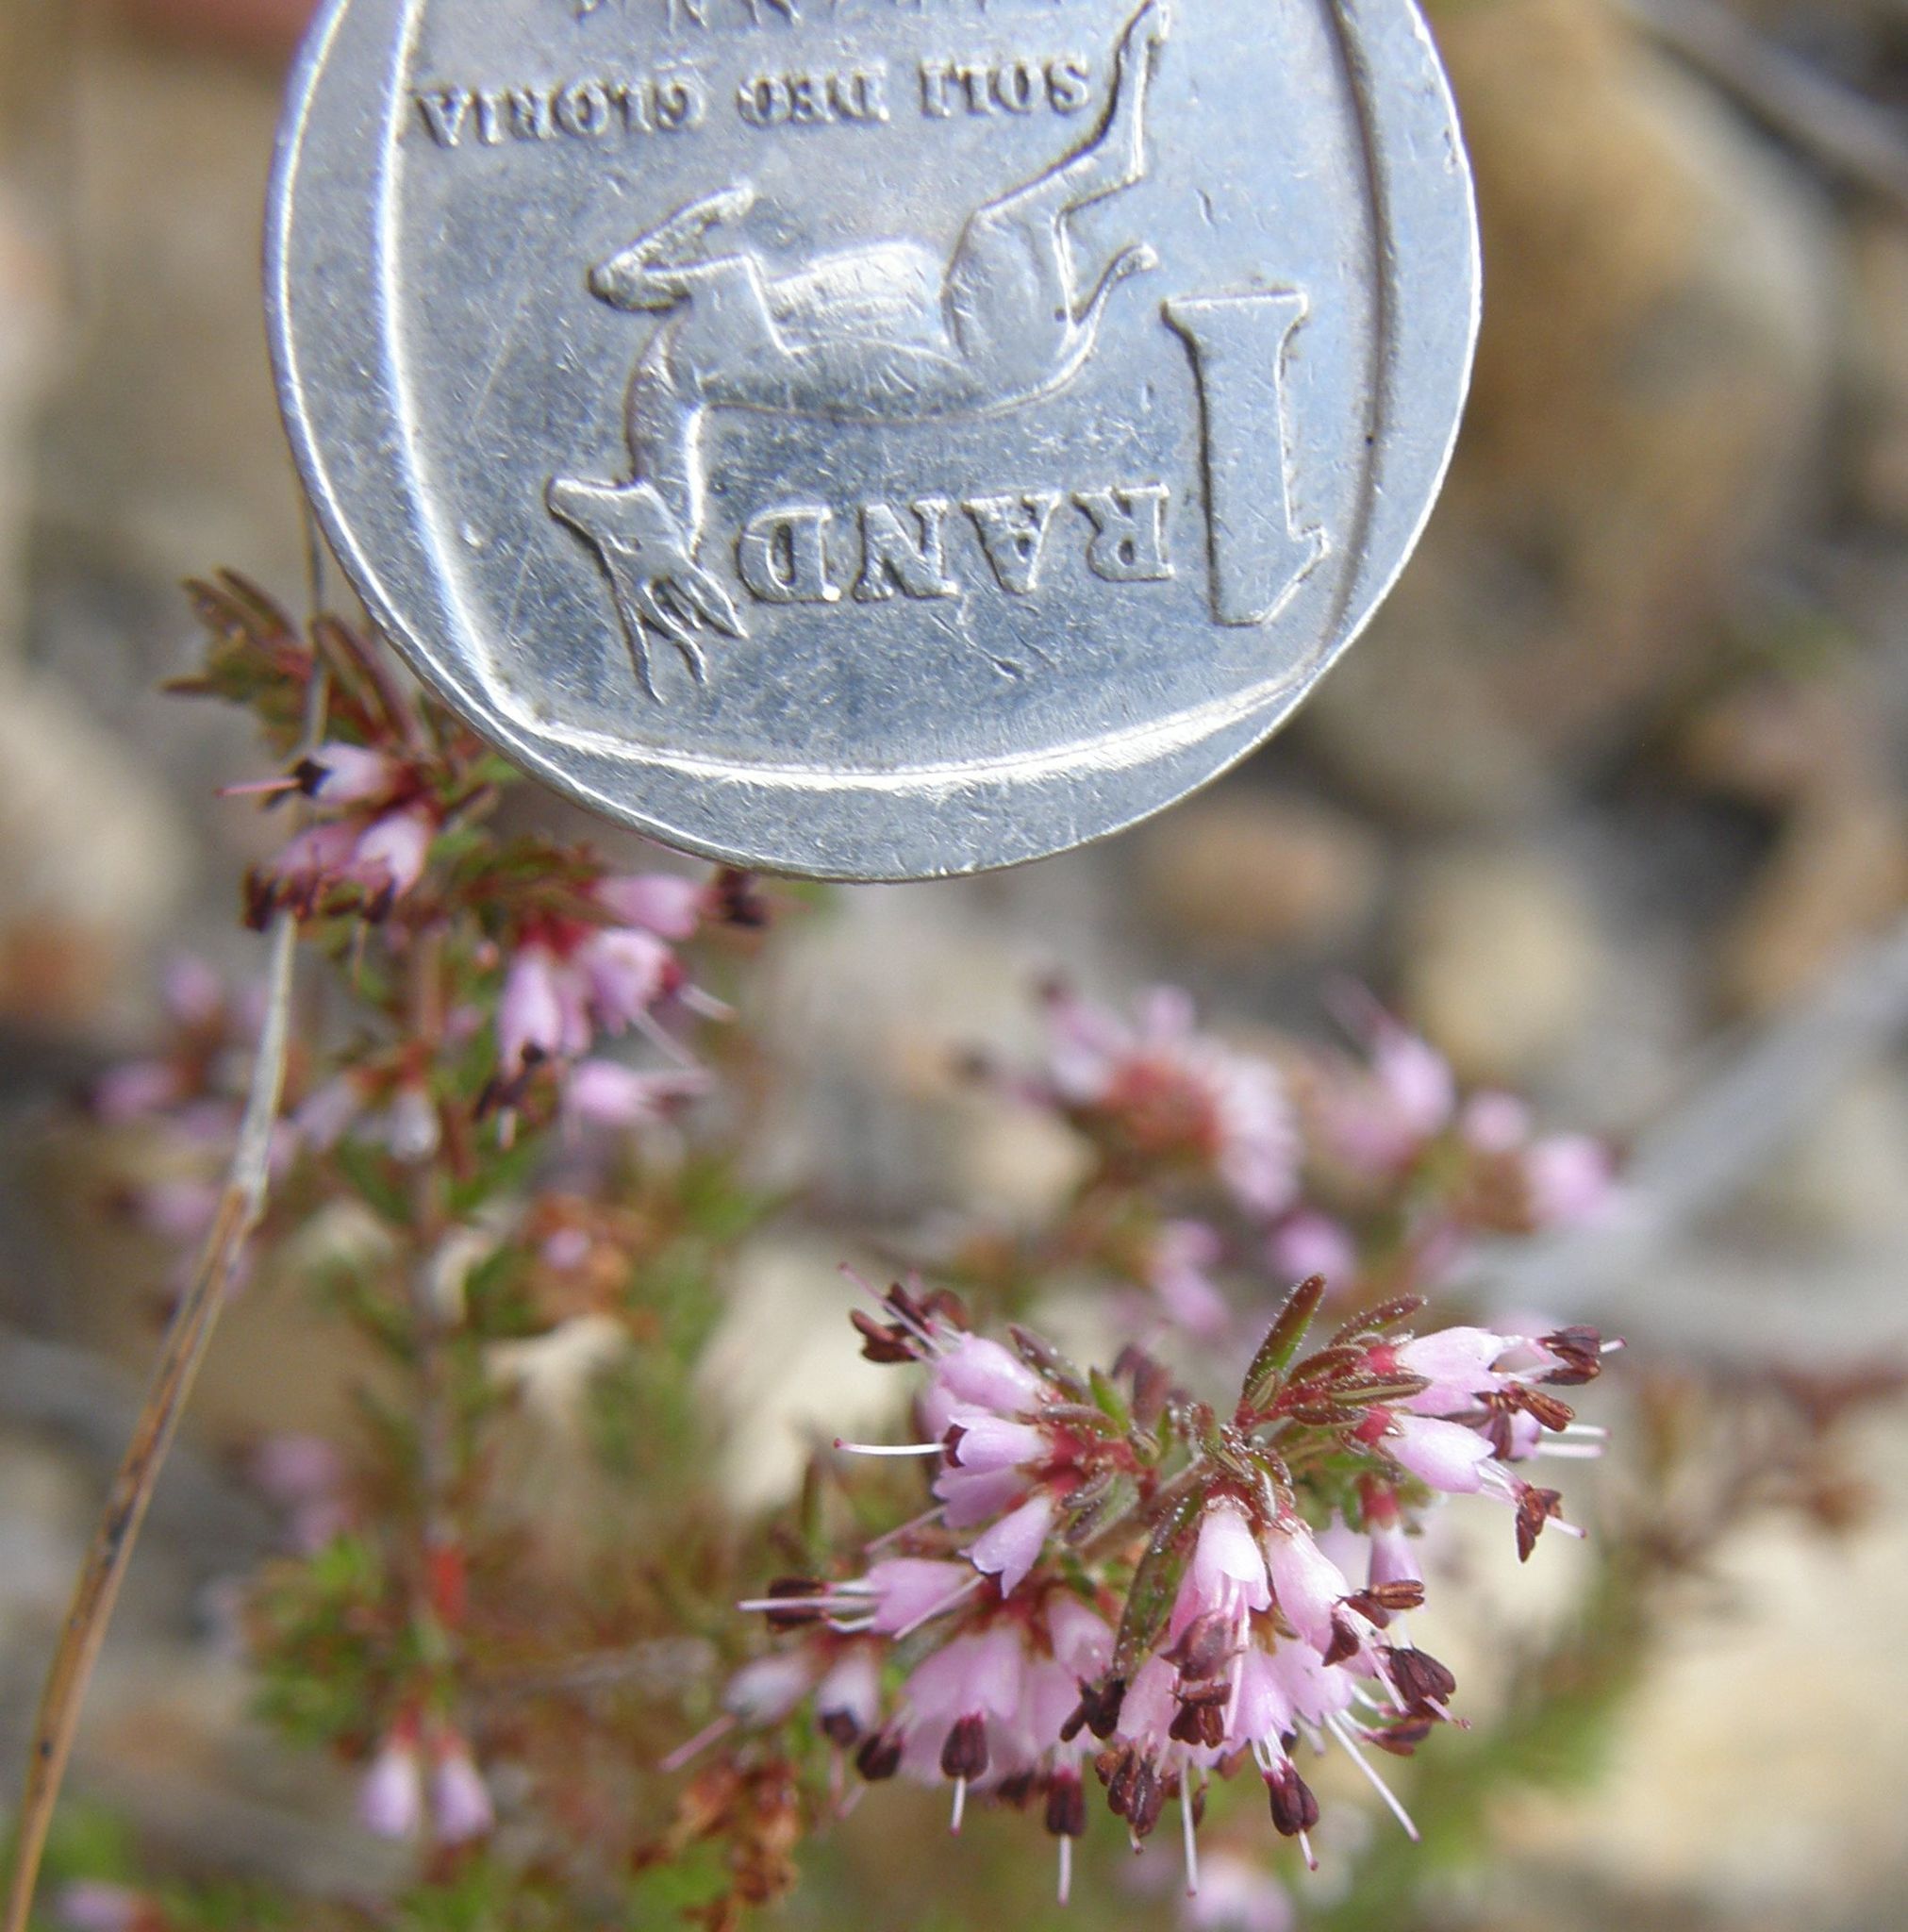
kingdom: Plantae
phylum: Tracheophyta
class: Magnoliopsida
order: Ericales
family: Ericaceae
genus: Erica
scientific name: Erica nudiflora
